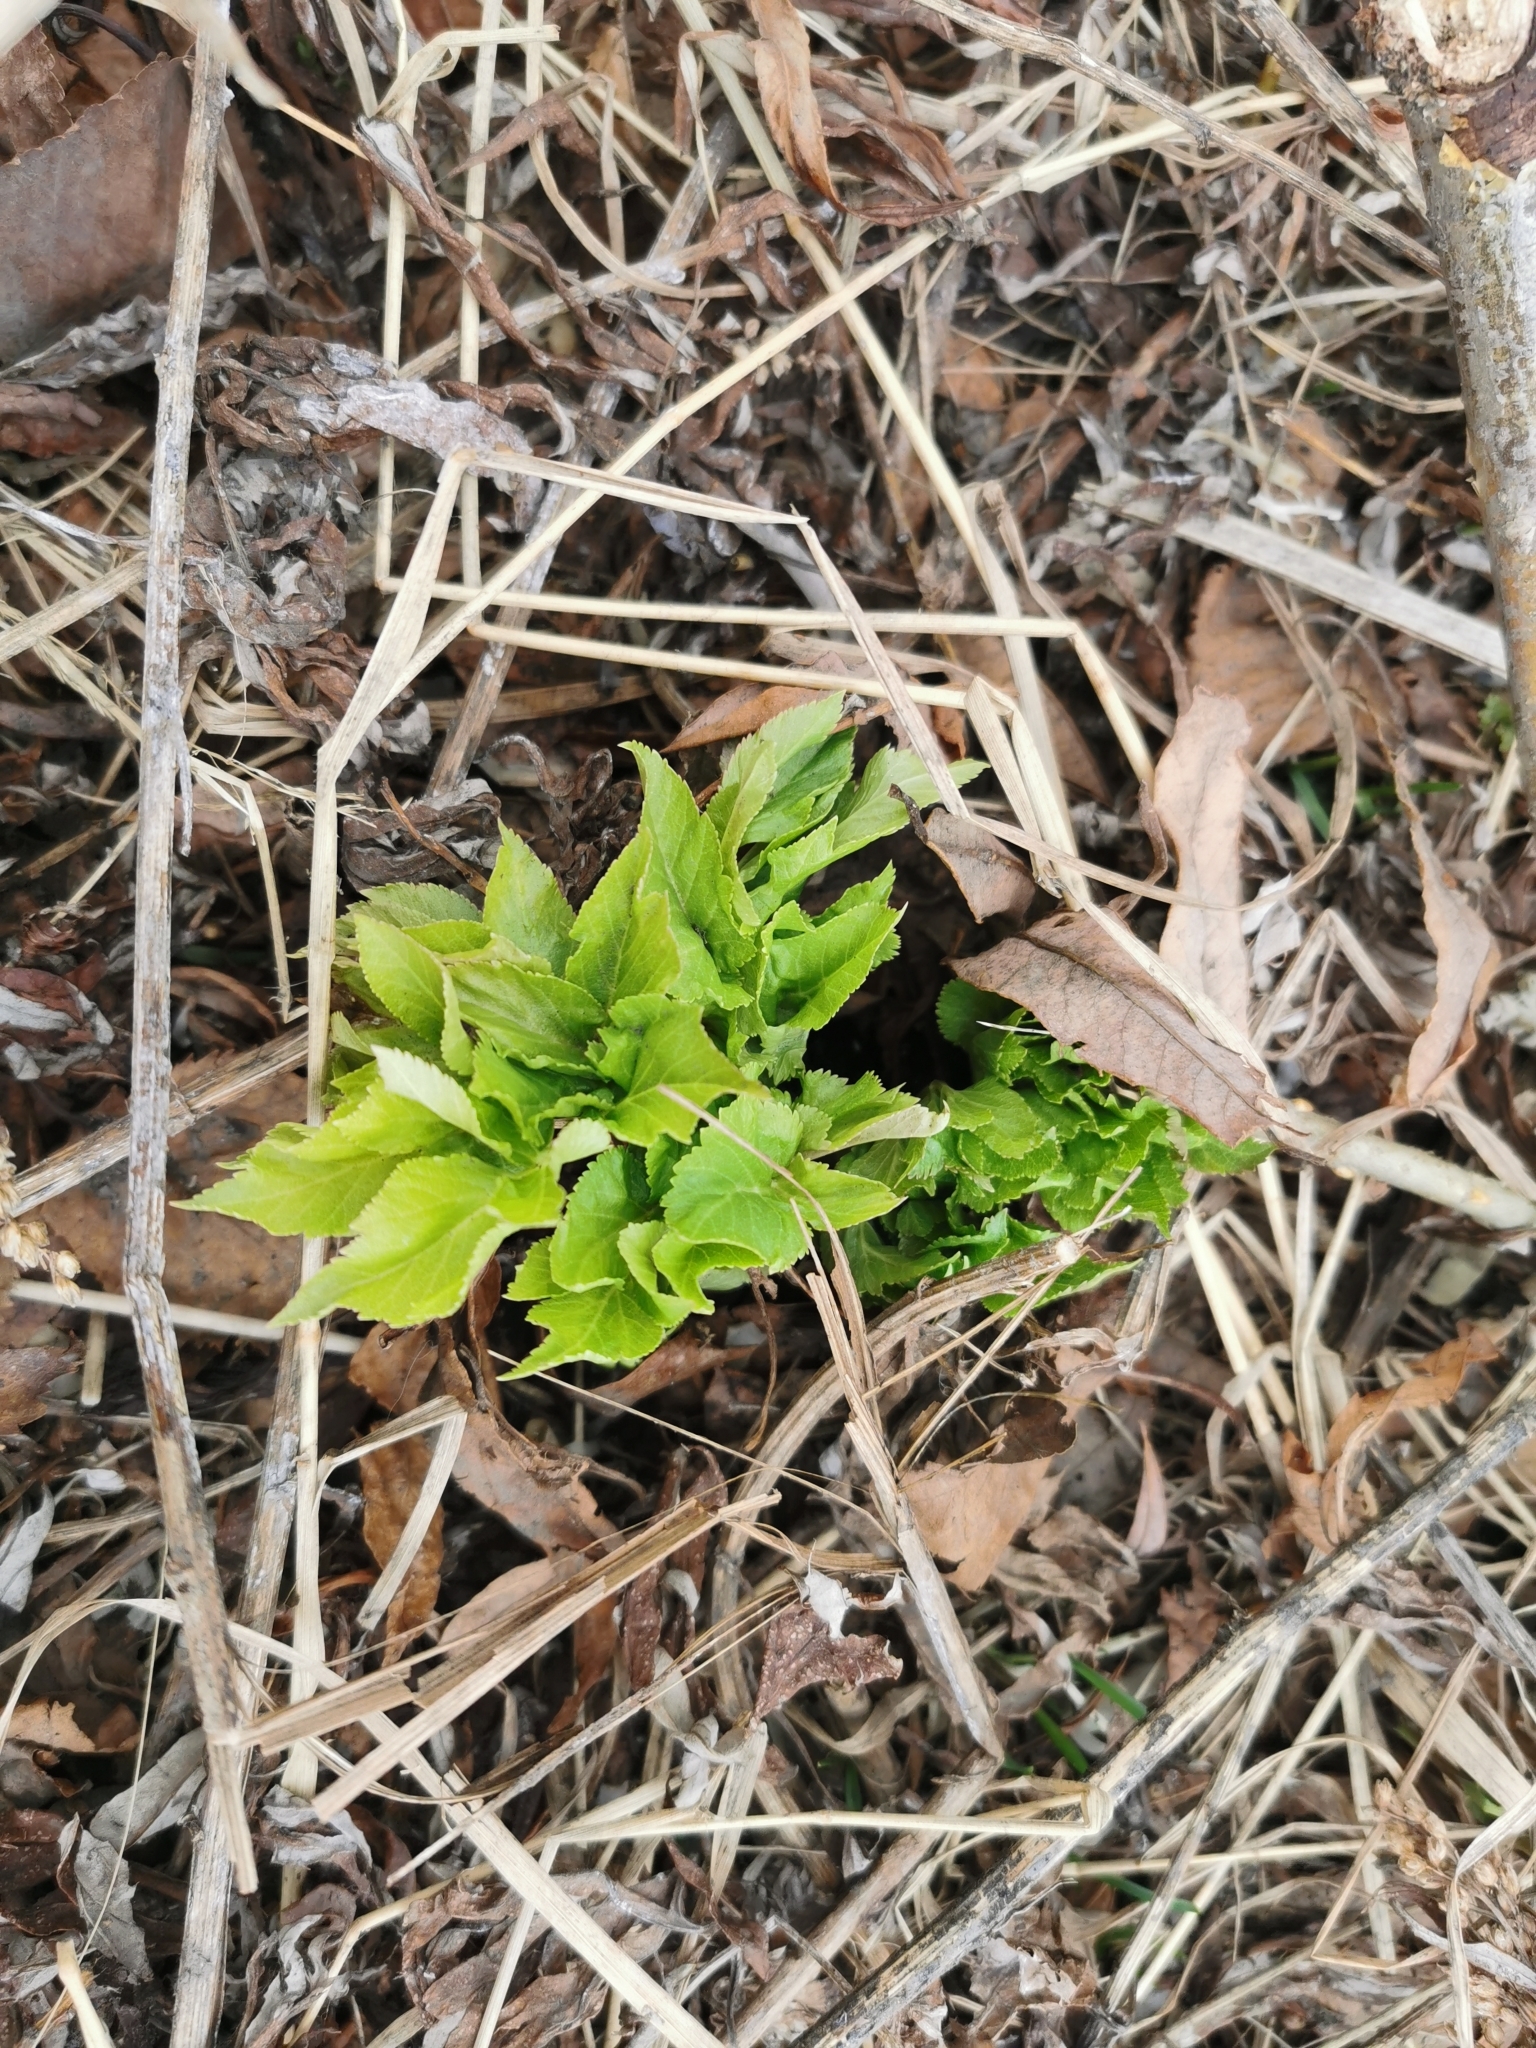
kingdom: Plantae
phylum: Tracheophyta
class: Magnoliopsida
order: Apiales
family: Apiaceae
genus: Angelica
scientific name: Angelica gmelinii
